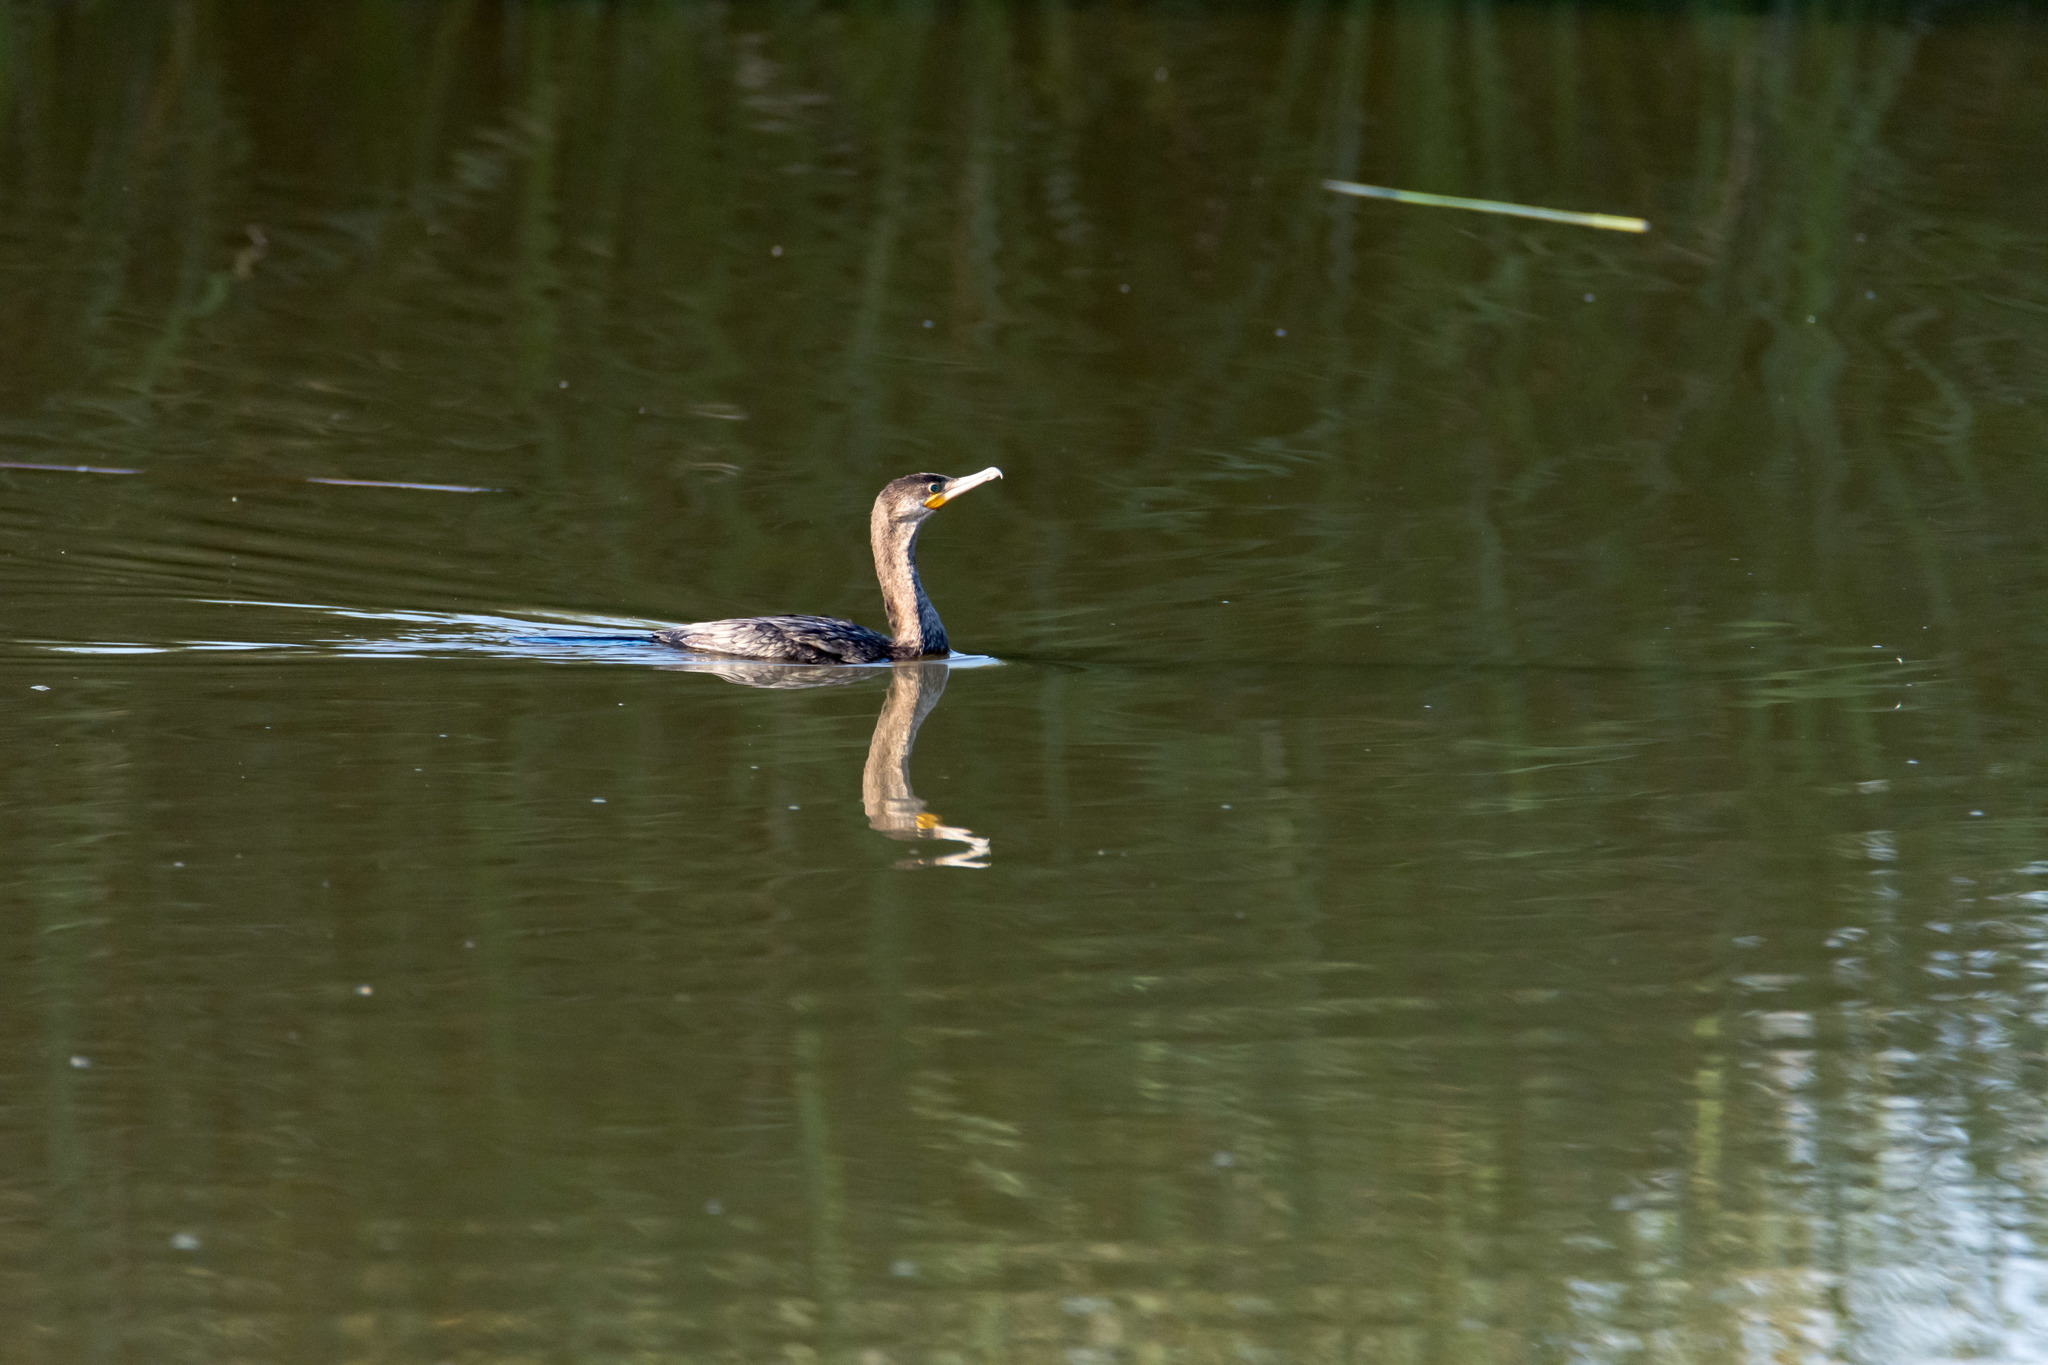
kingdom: Animalia
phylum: Chordata
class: Aves
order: Suliformes
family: Phalacrocoracidae
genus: Phalacrocorax
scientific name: Phalacrocorax brasilianus
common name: Neotropic cormorant
